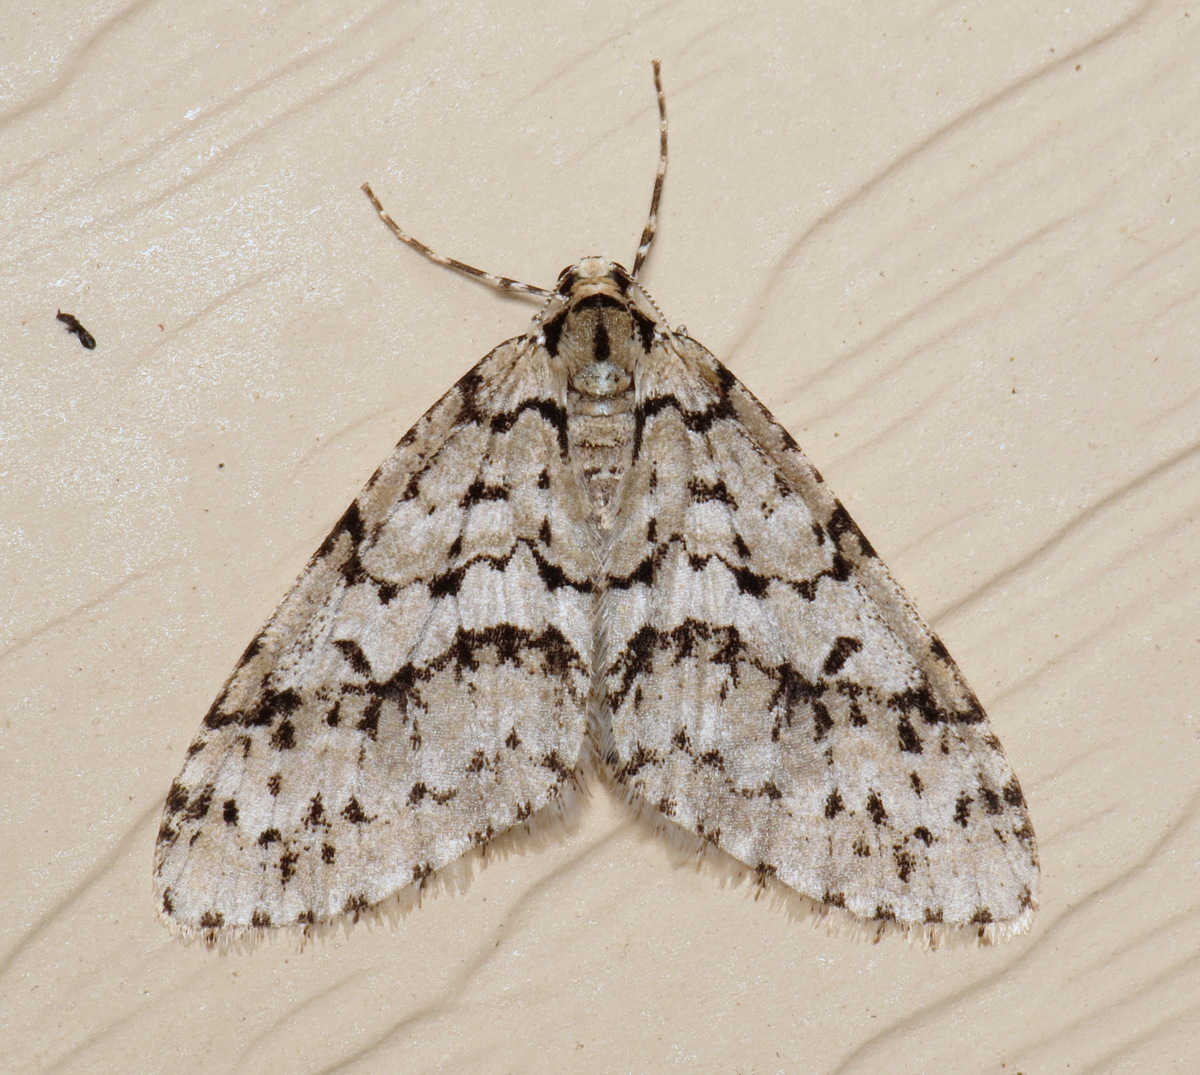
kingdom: Animalia
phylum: Arthropoda
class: Insecta
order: Lepidoptera
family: Geometridae
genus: Cladara
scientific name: Cladara atroliturata
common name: Scribbler
